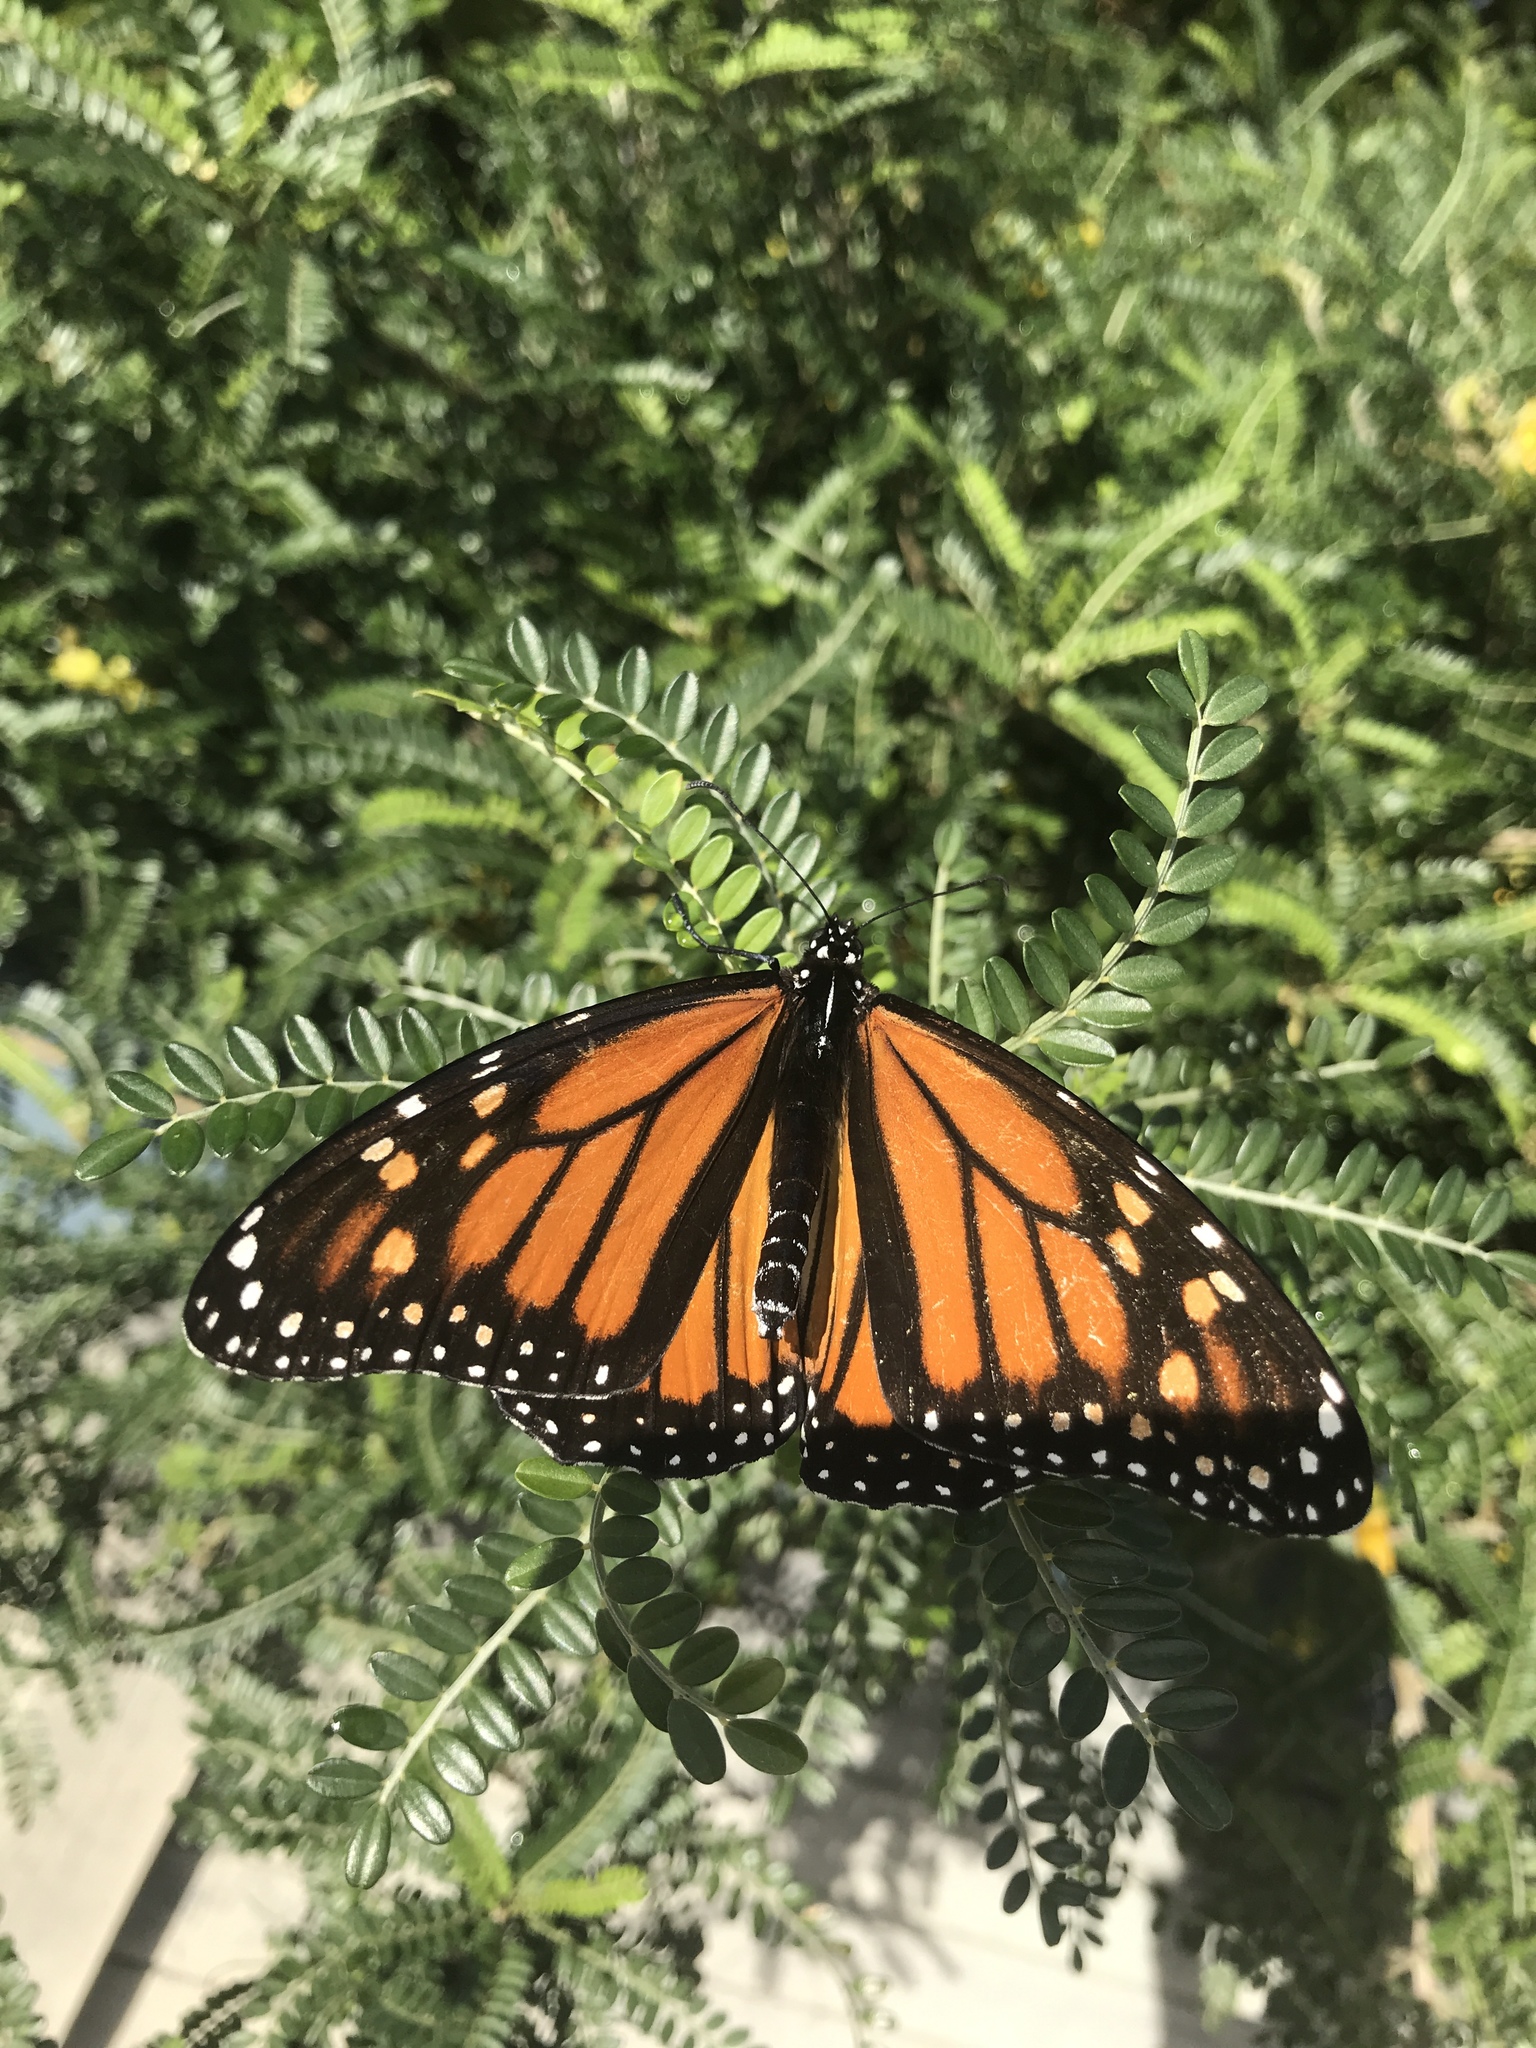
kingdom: Animalia
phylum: Arthropoda
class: Insecta
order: Lepidoptera
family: Nymphalidae
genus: Danaus
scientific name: Danaus plexippus
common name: Monarch
